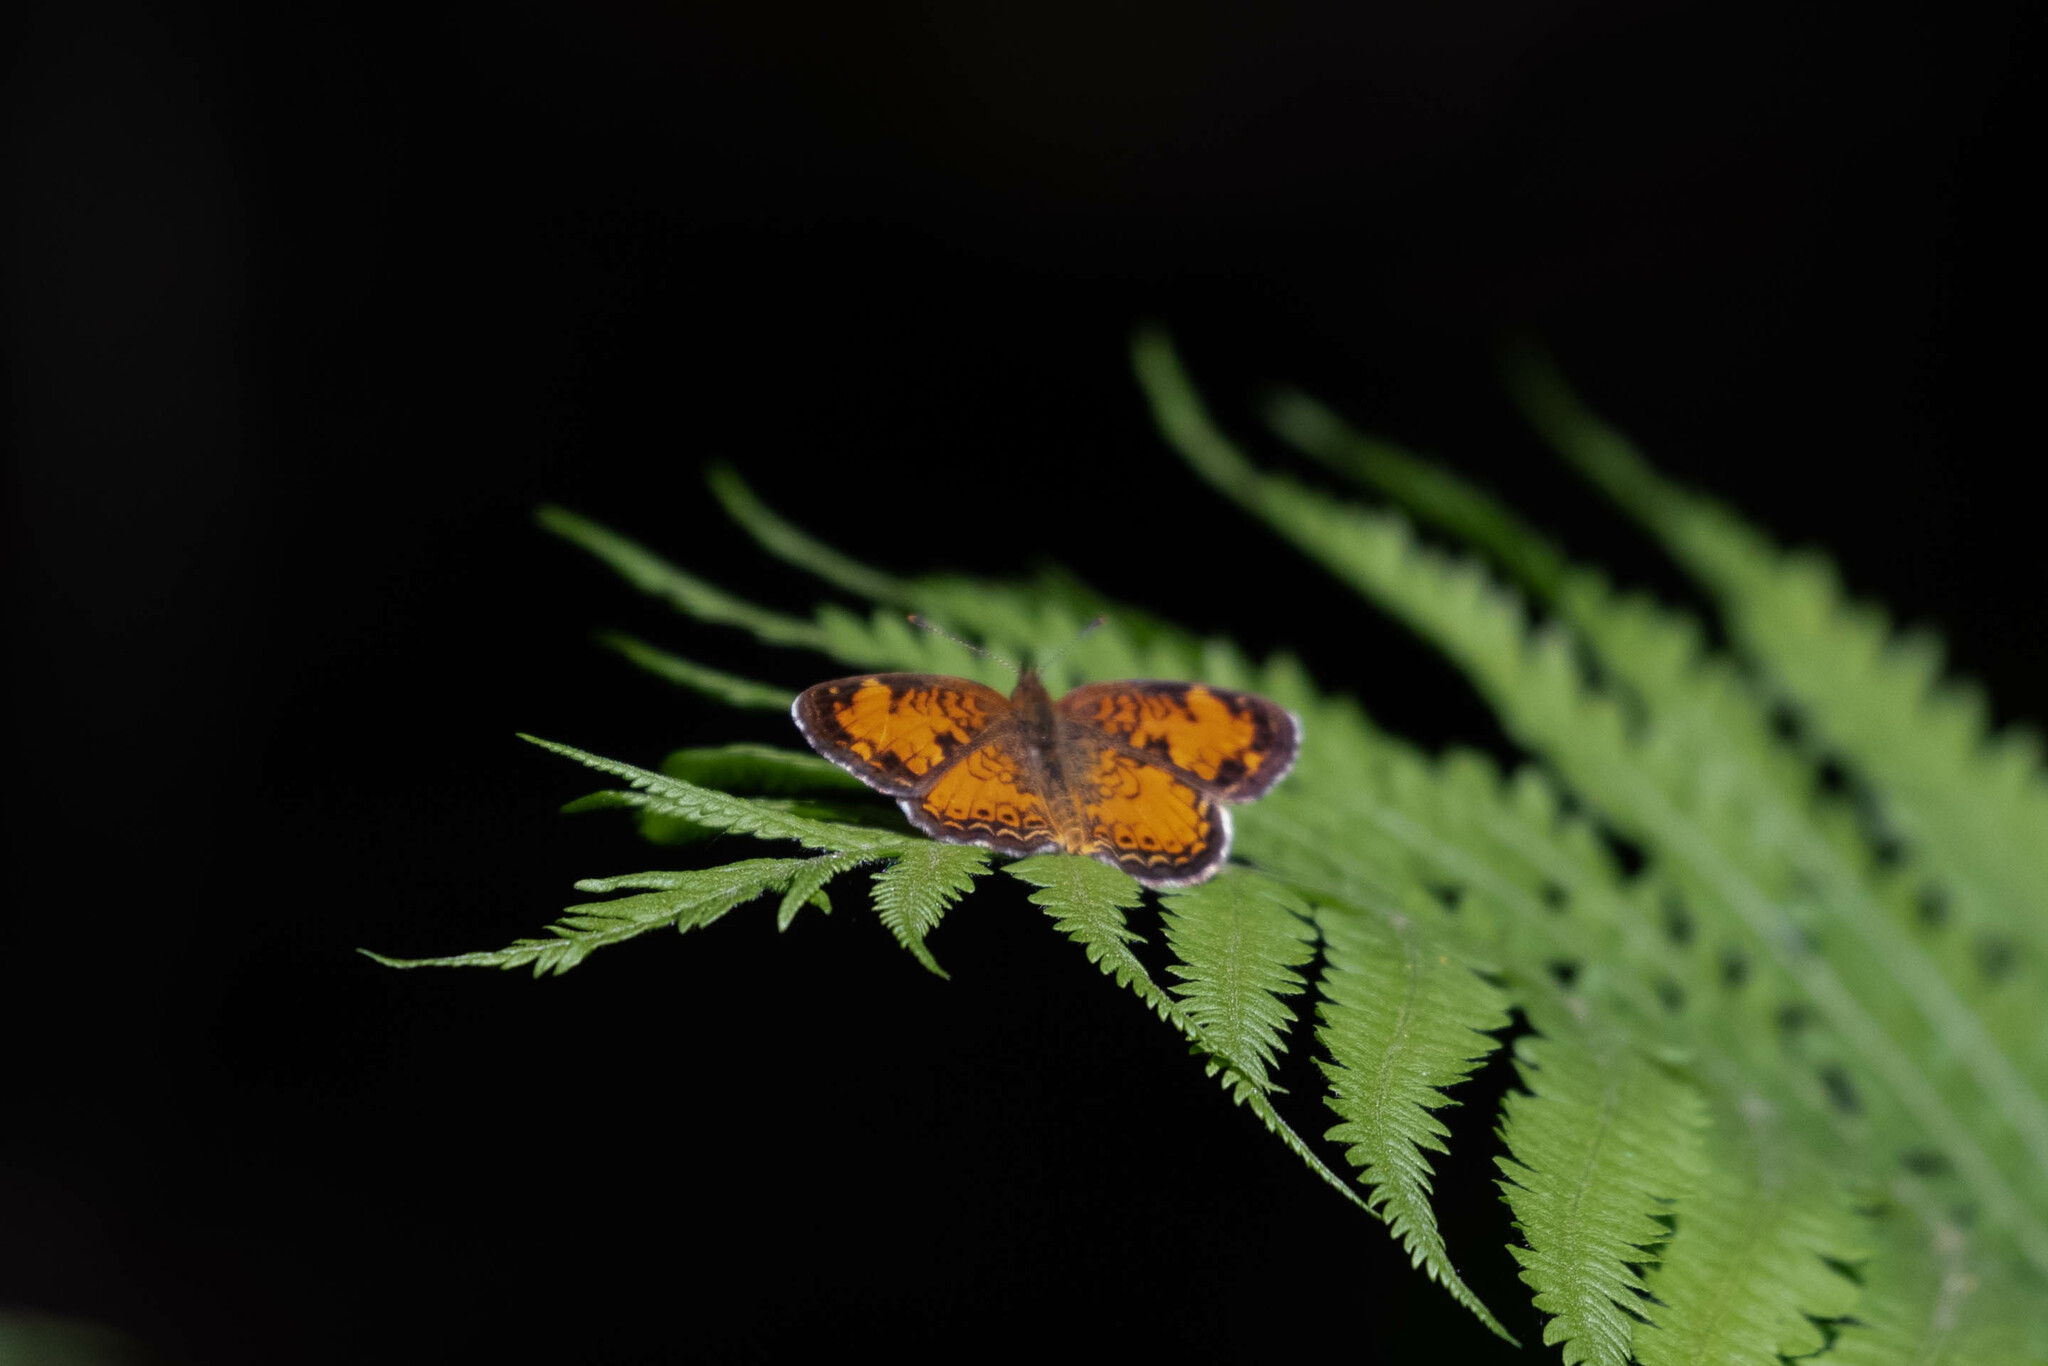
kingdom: Animalia
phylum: Arthropoda
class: Insecta
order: Lepidoptera
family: Nymphalidae
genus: Phyciodes
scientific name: Phyciodes tharos
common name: Pearl crescent
